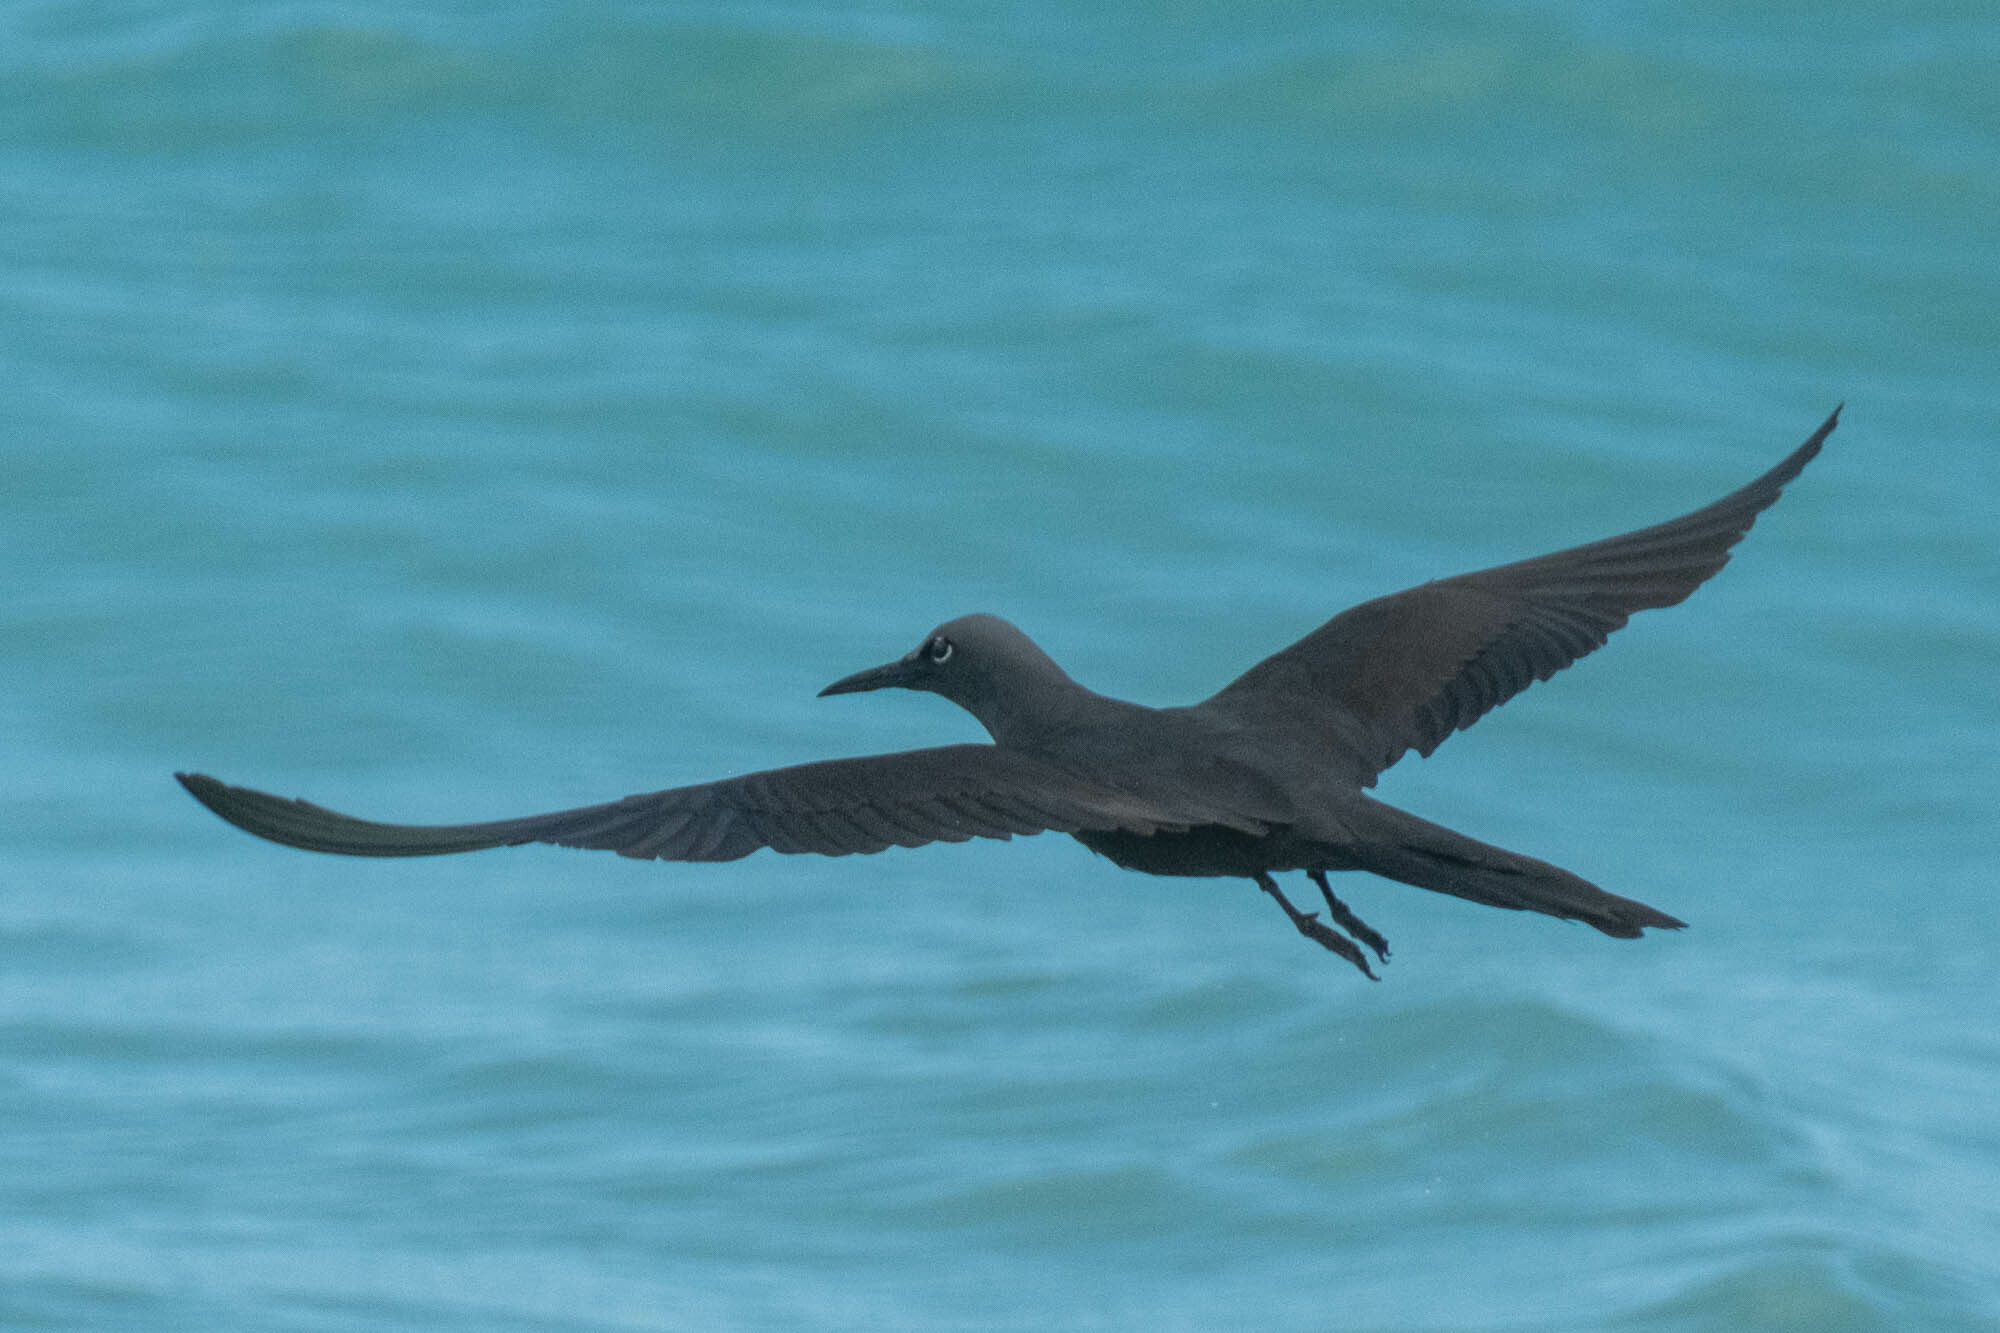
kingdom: Animalia
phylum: Chordata
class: Aves
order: Charadriiformes
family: Laridae
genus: Anous
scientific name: Anous stolidus
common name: Brown noddy
